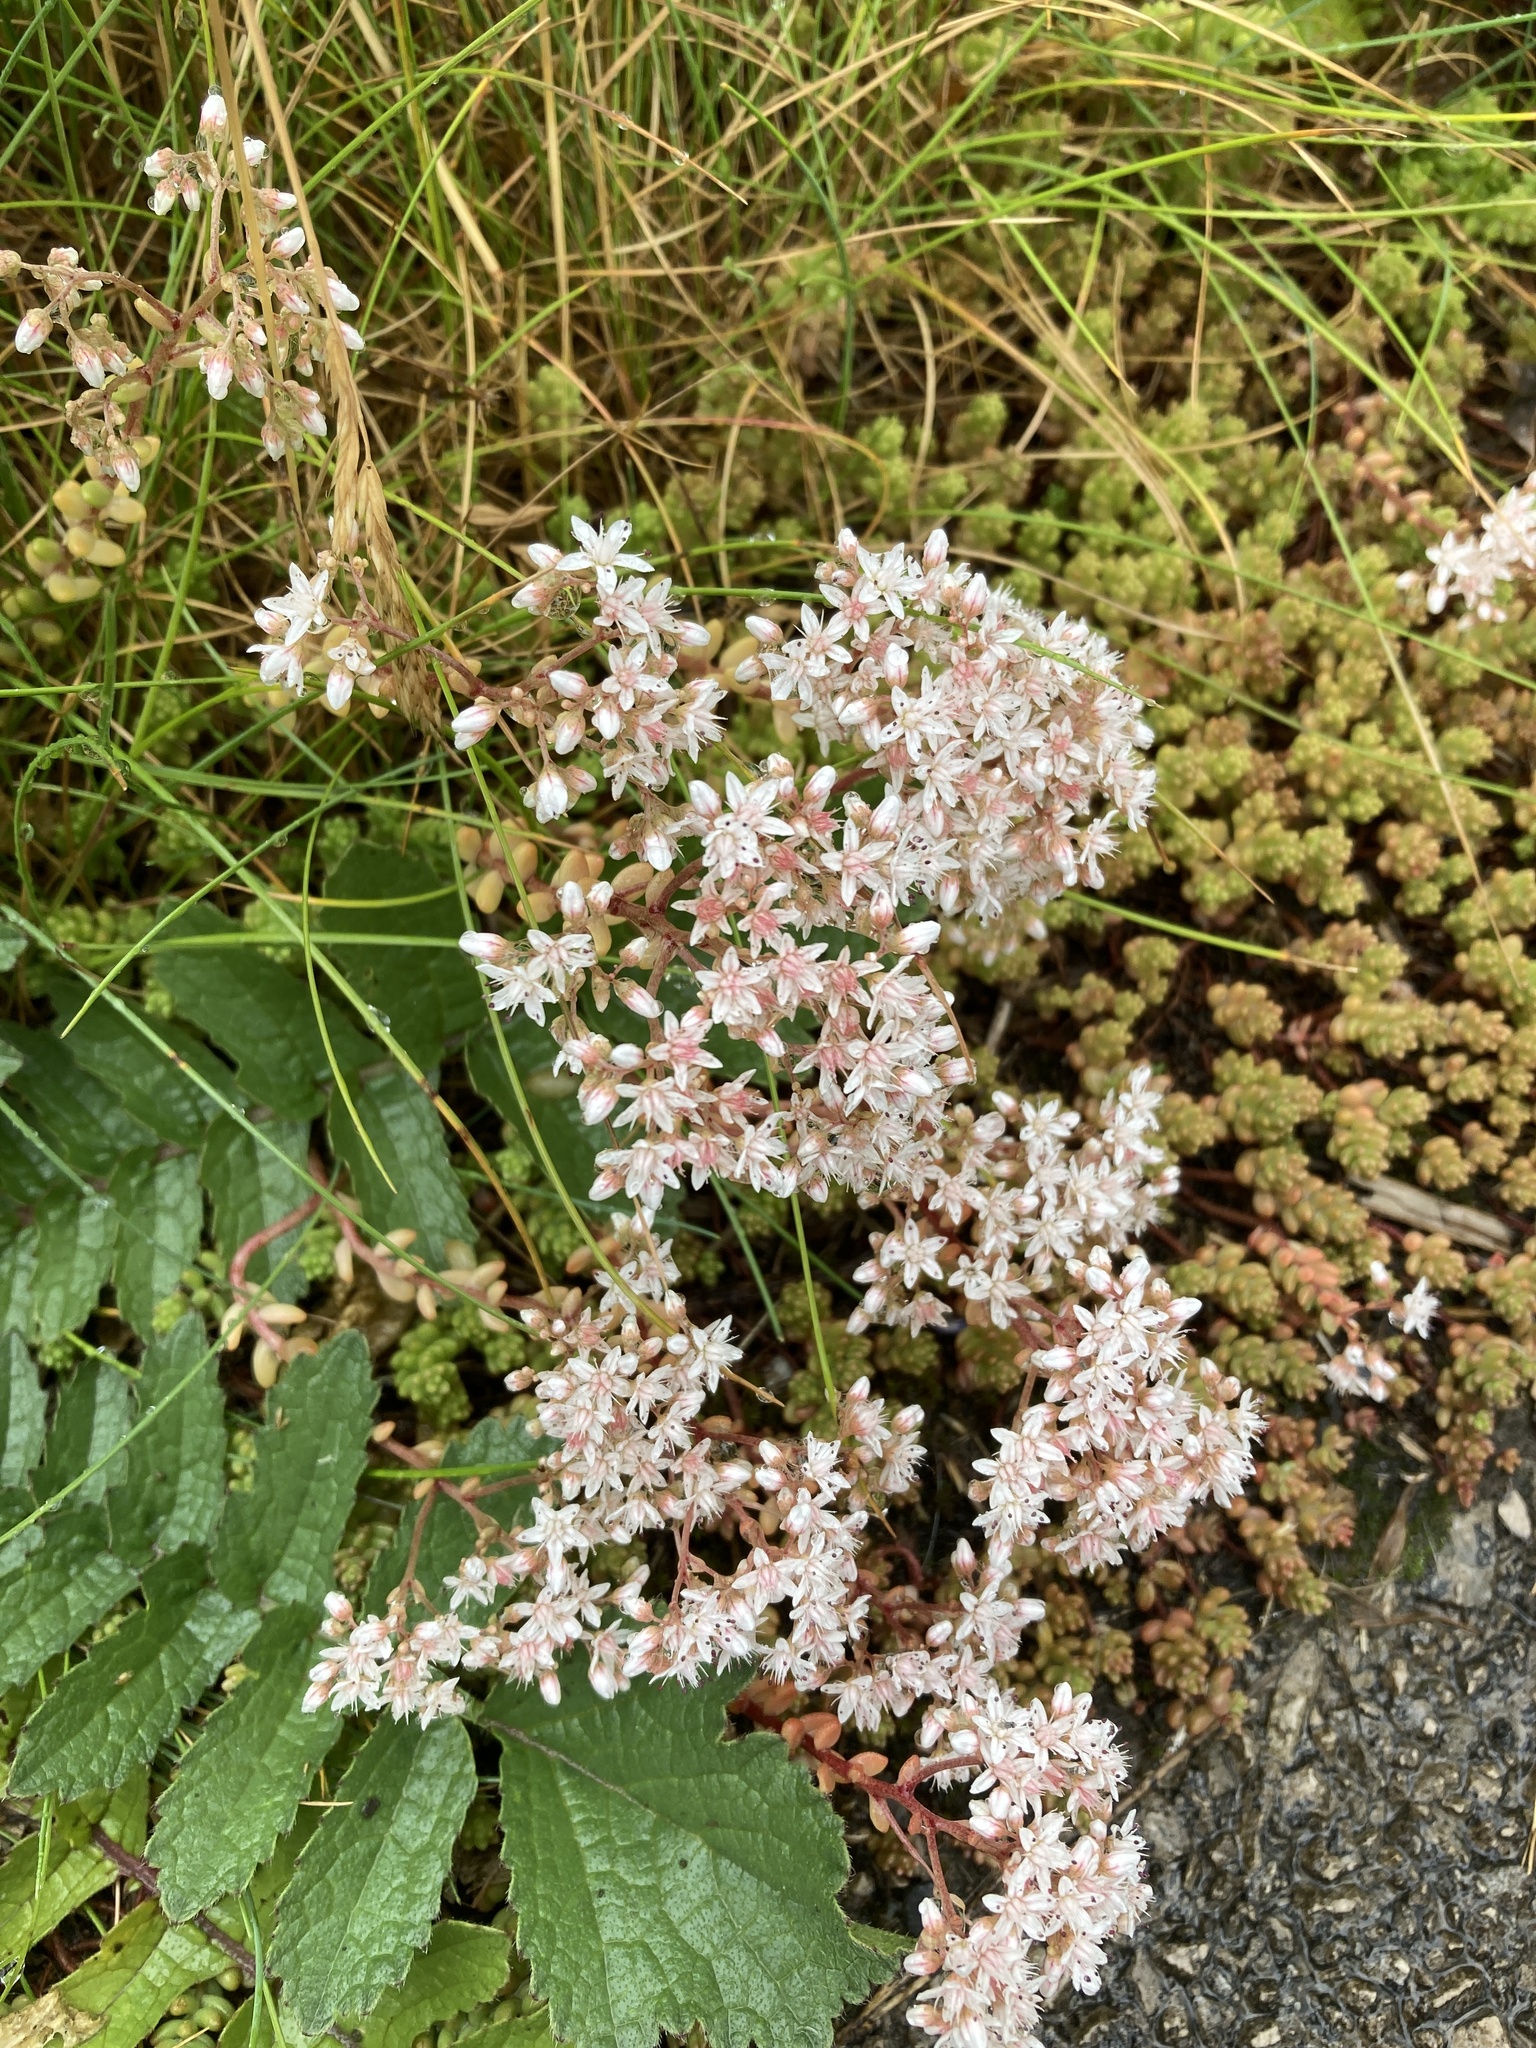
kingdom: Plantae
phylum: Tracheophyta
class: Magnoliopsida
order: Saxifragales
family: Crassulaceae
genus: Sedum
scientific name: Sedum album
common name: White stonecrop
